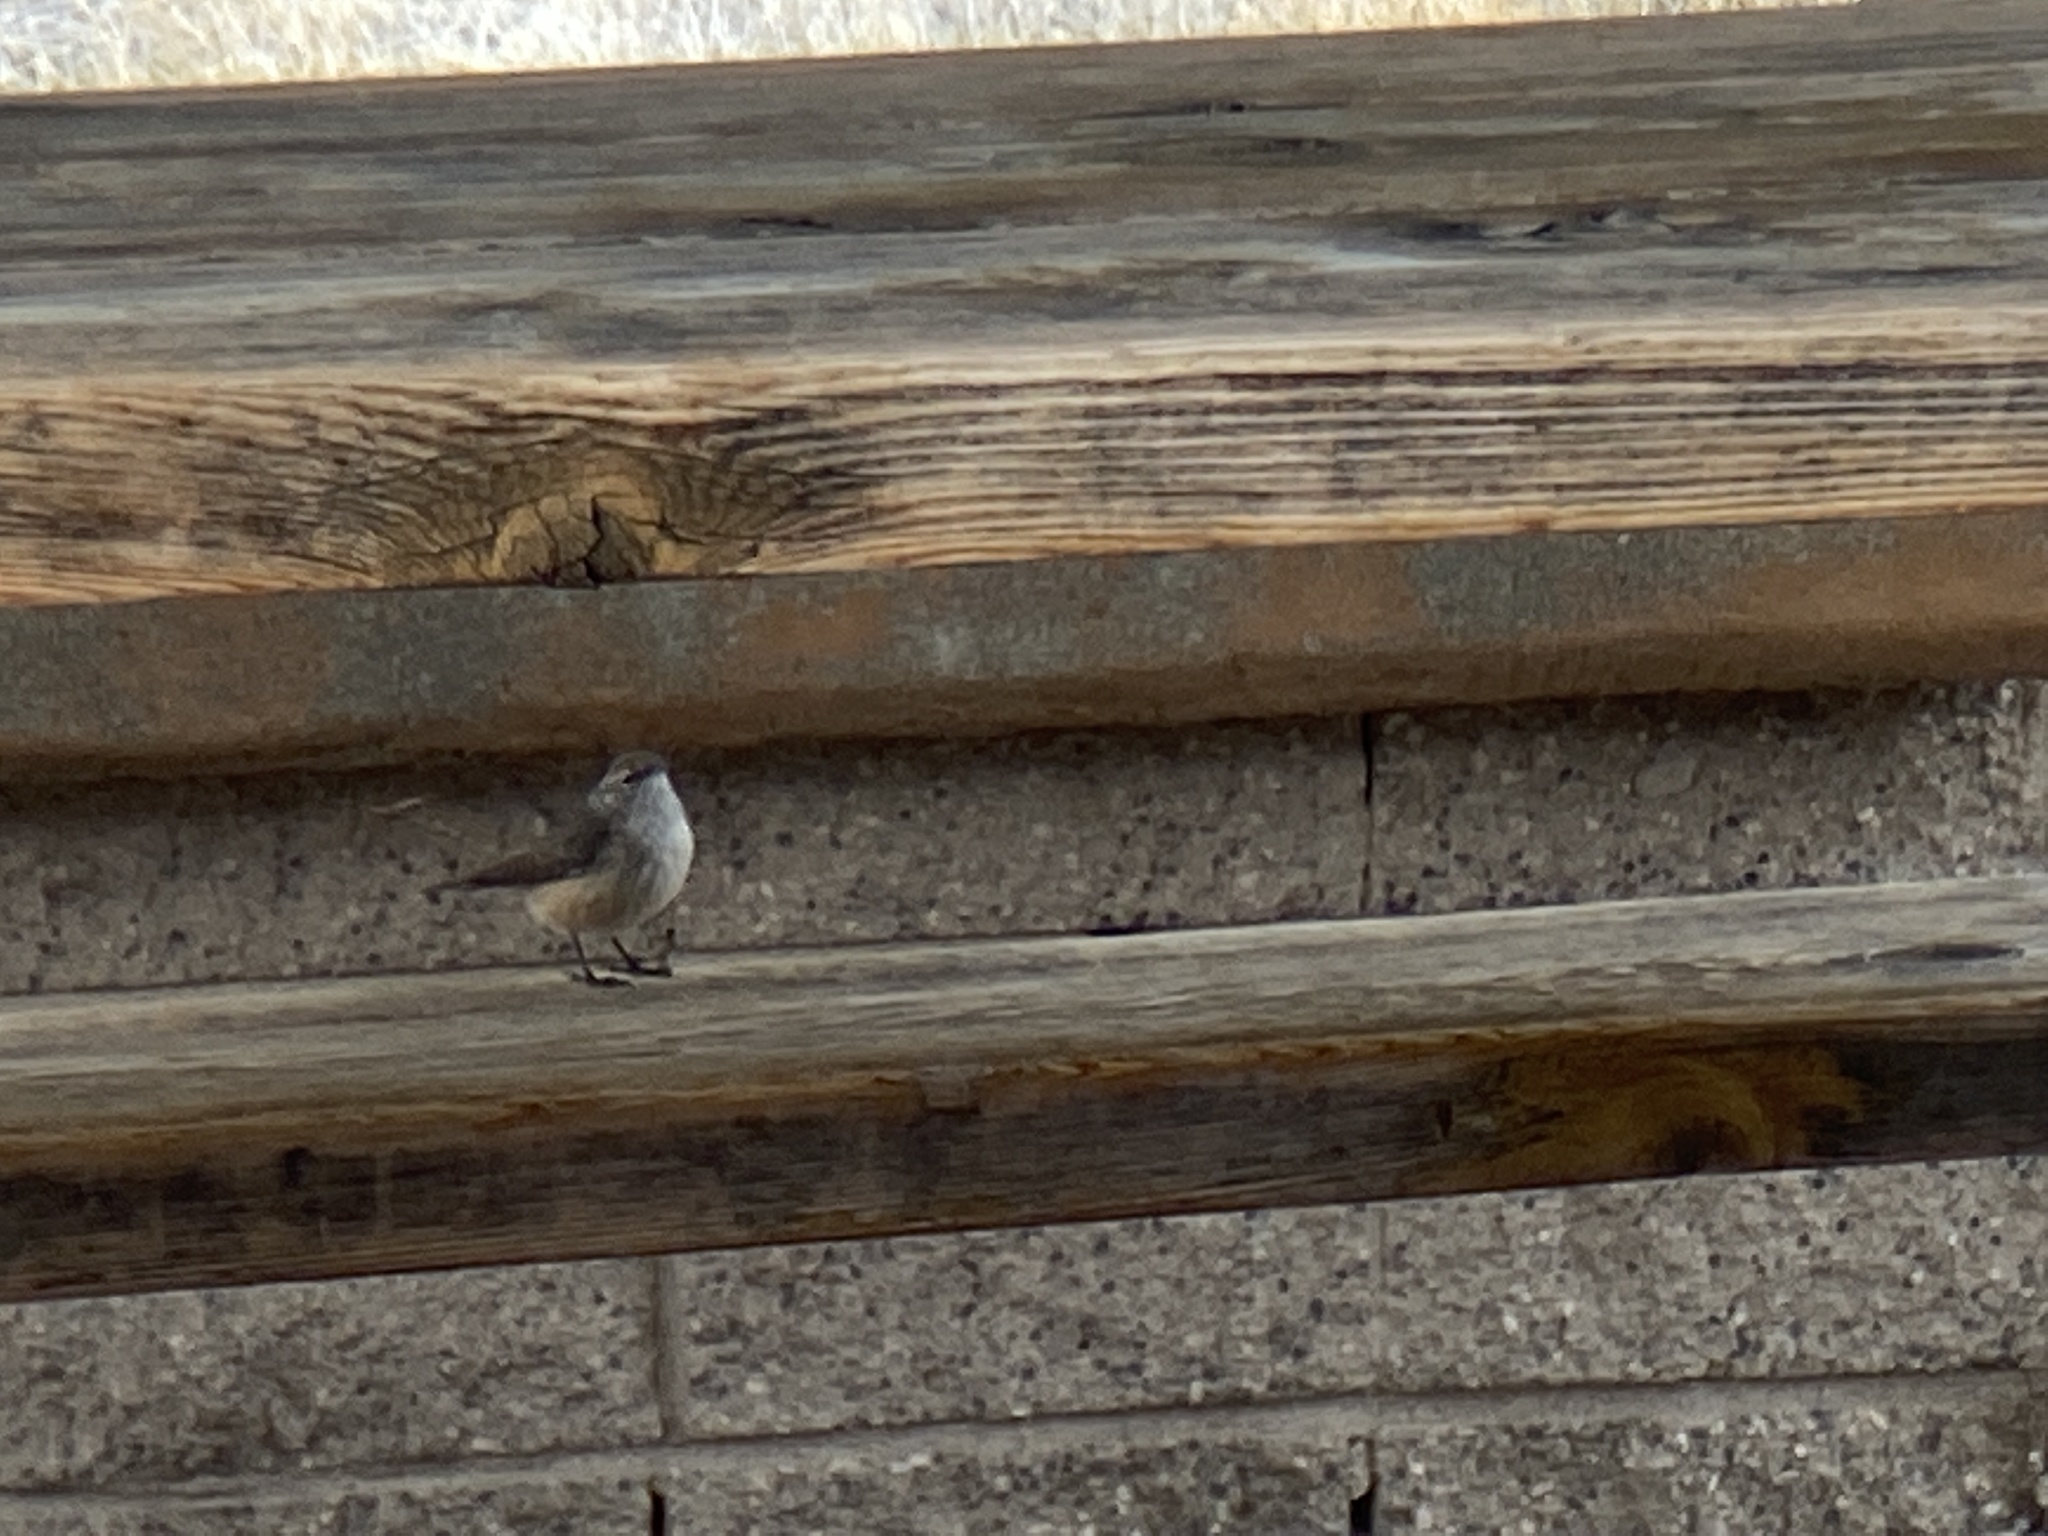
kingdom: Animalia
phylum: Chordata
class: Aves
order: Passeriformes
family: Troglodytidae
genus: Salpinctes
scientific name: Salpinctes obsoletus
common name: Rock wren
